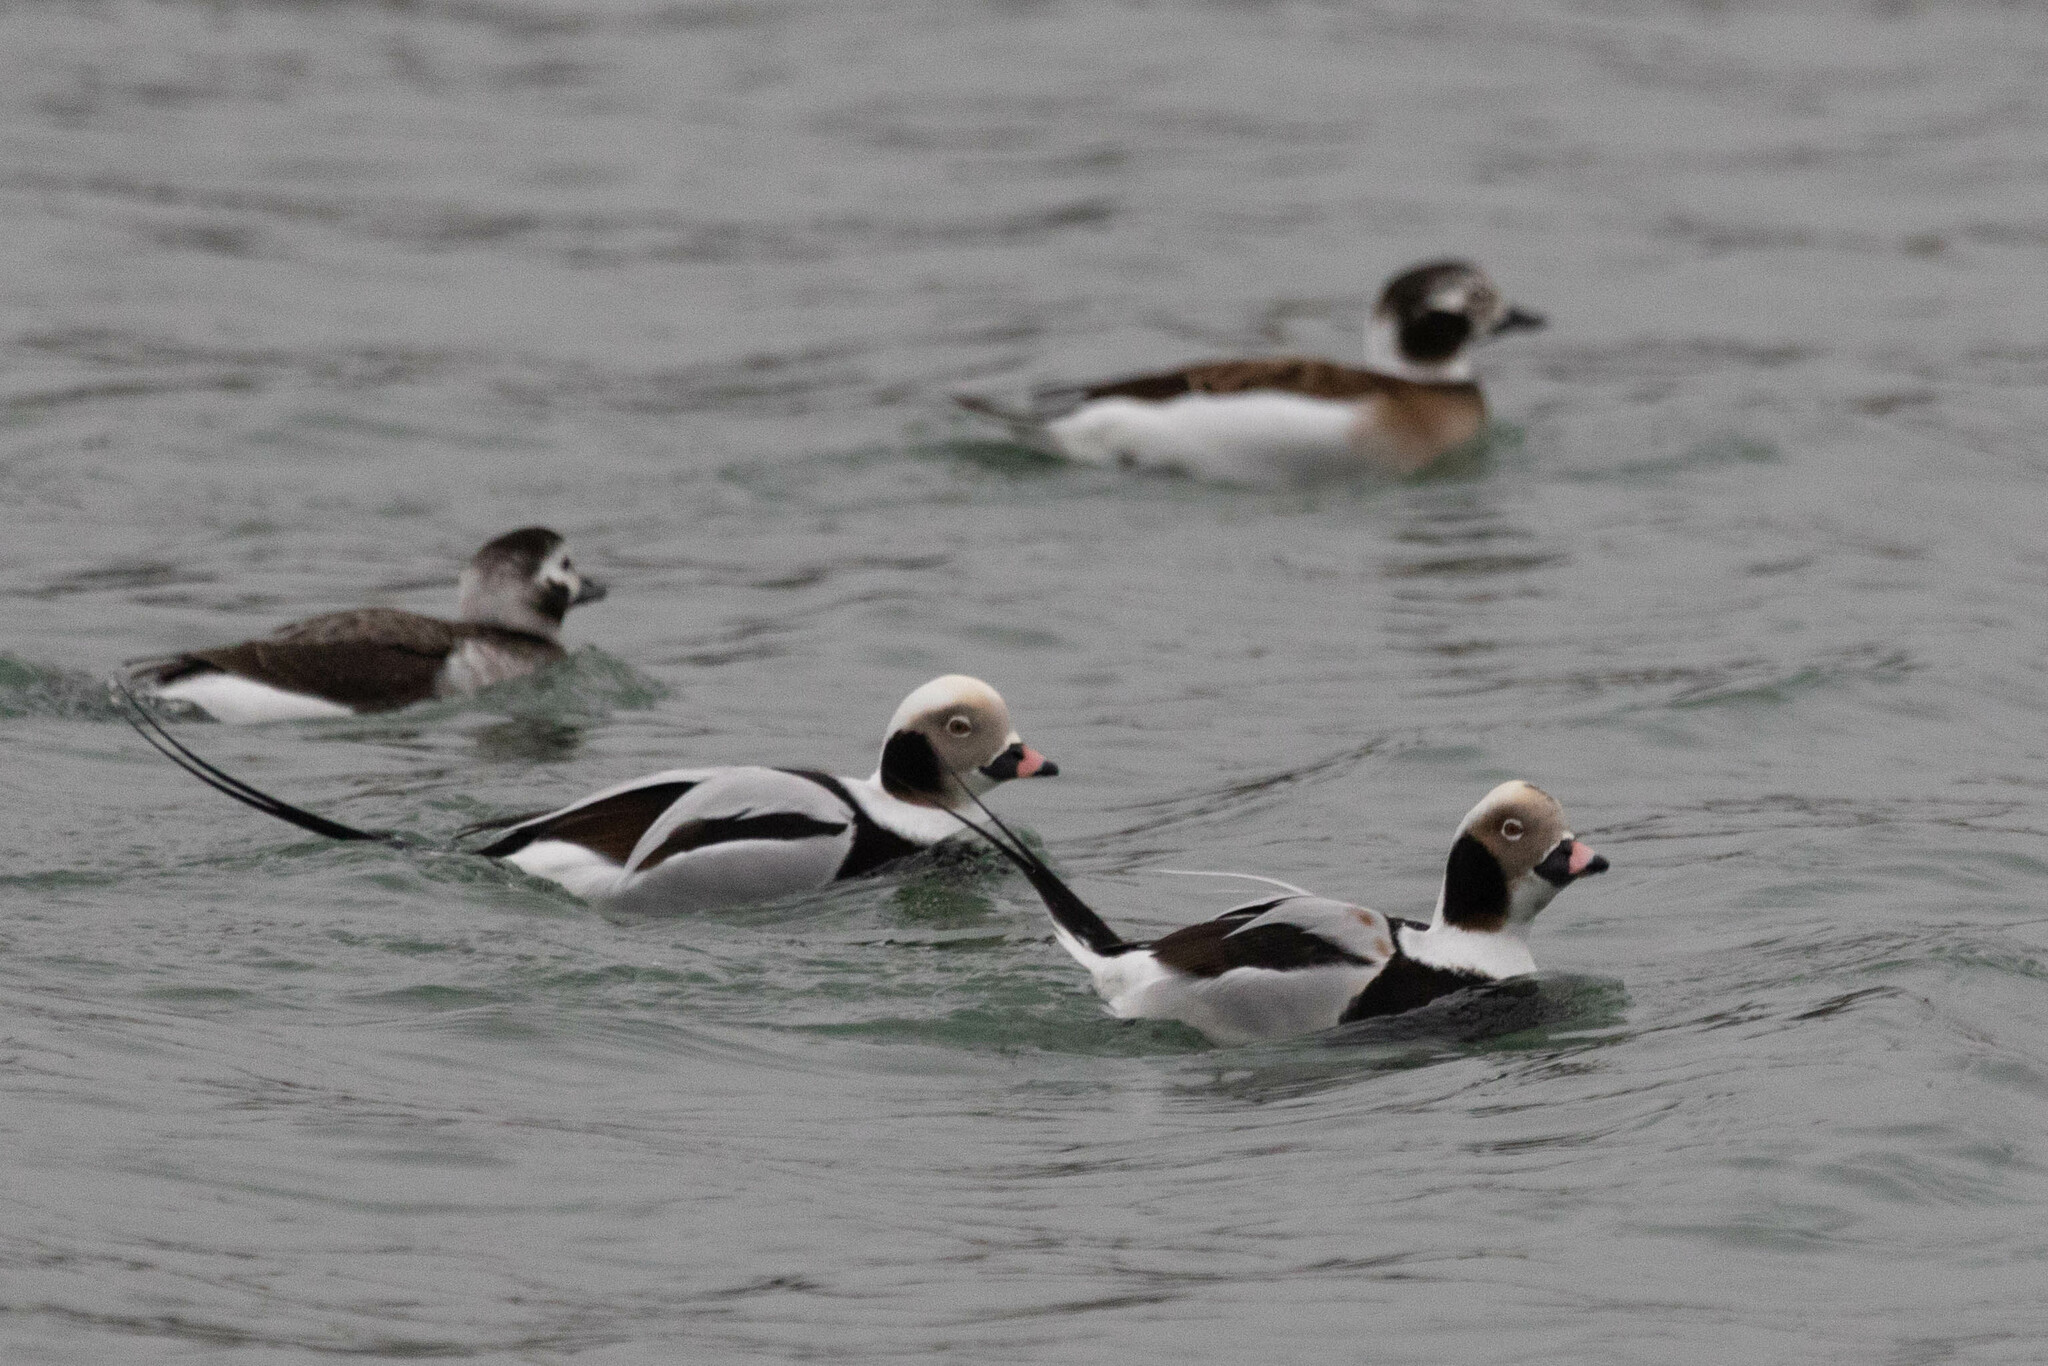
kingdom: Animalia
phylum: Chordata
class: Aves
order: Anseriformes
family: Anatidae
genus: Clangula
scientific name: Clangula hyemalis
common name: Long-tailed duck
